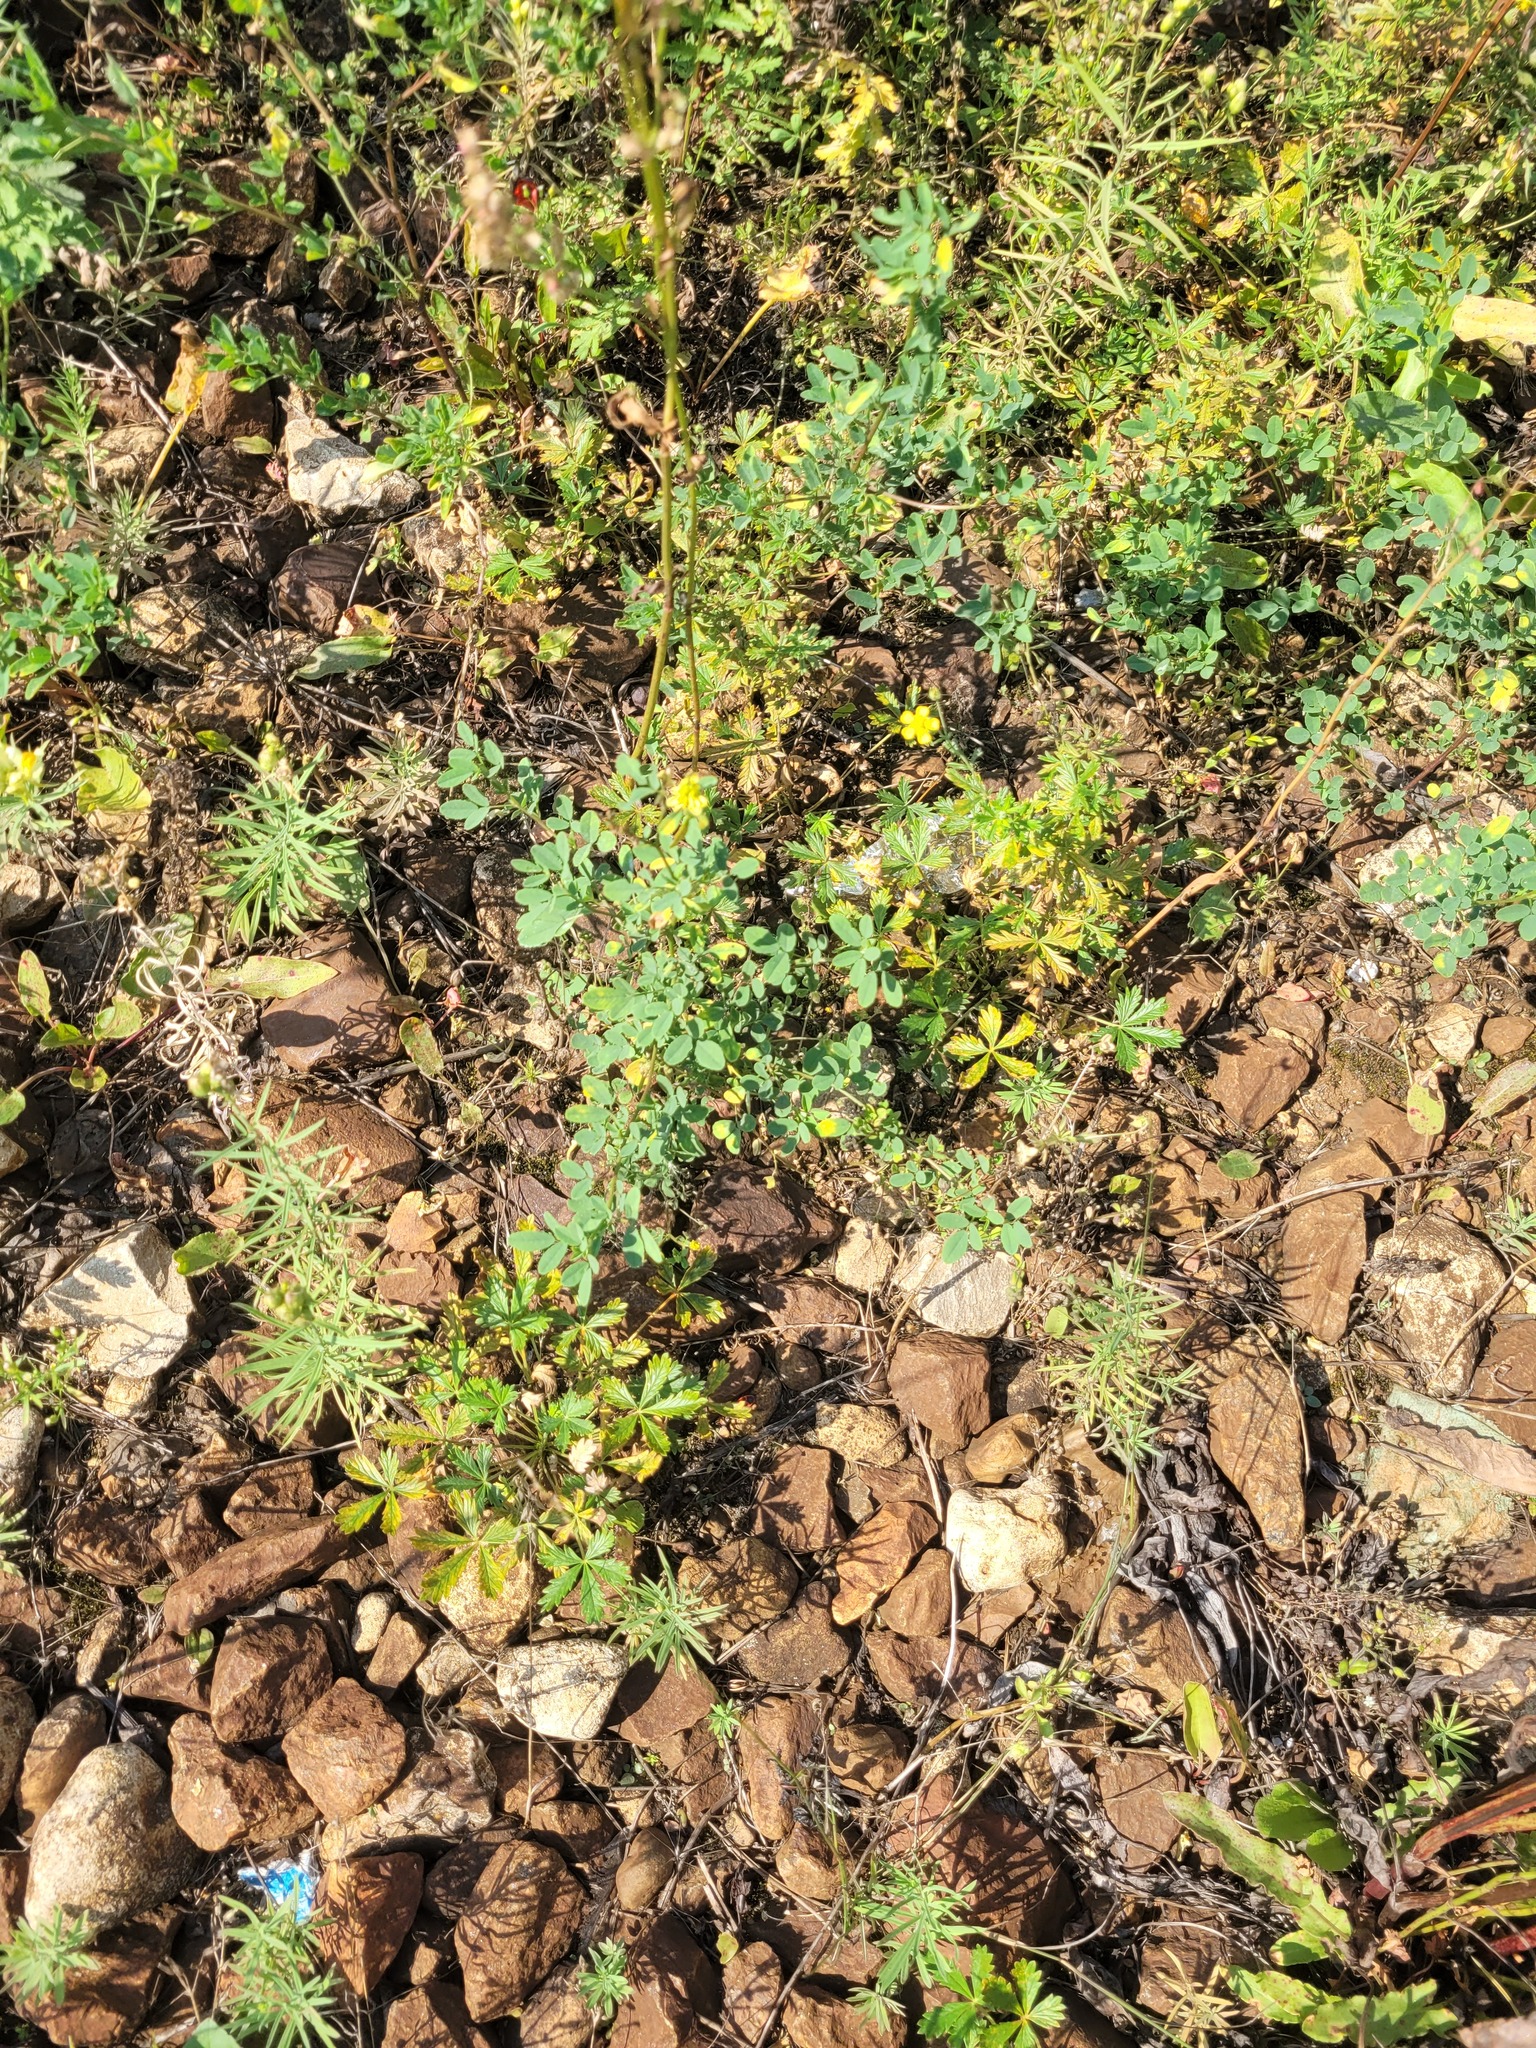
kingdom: Plantae
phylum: Tracheophyta
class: Magnoliopsida
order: Rosales
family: Rosaceae
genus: Potentilla
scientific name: Potentilla argentea
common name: Hoary cinquefoil
